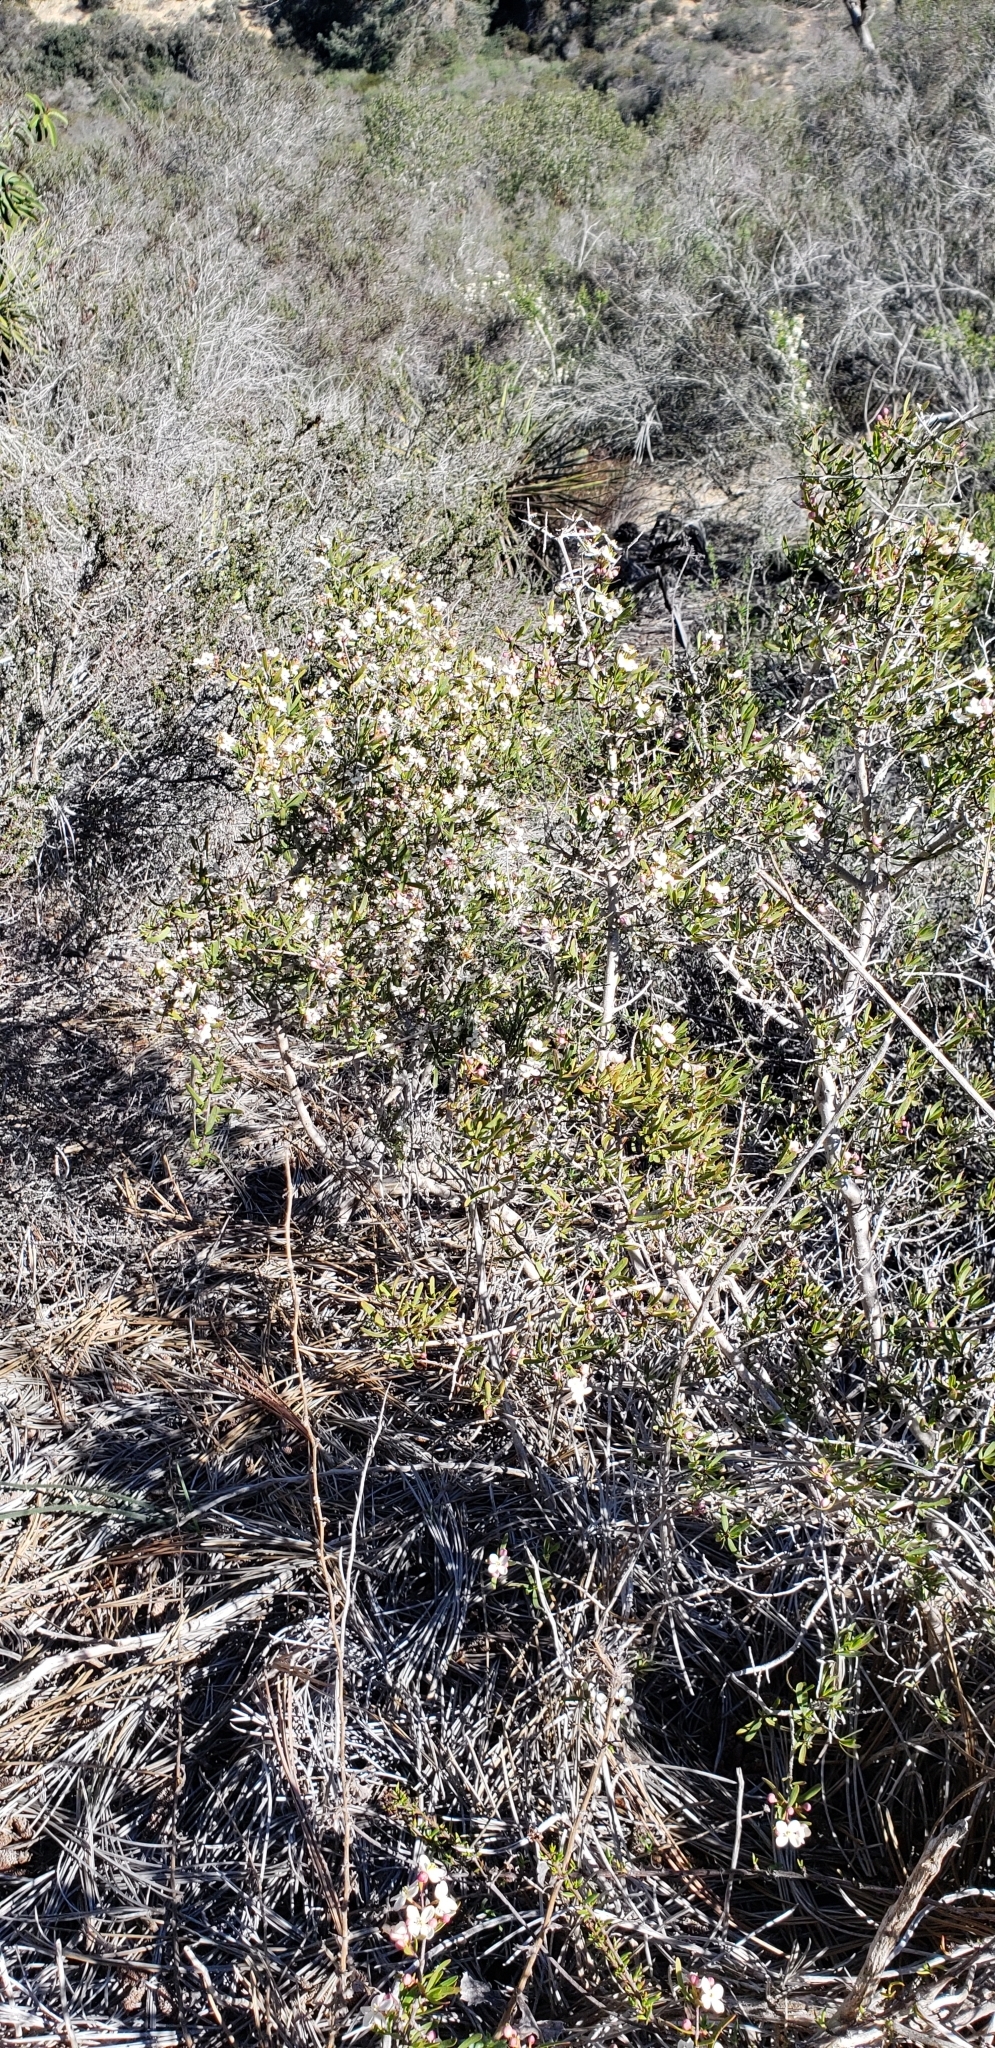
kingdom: Plantae
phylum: Tracheophyta
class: Magnoliopsida
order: Sapindales
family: Rutaceae
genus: Cneoridium
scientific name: Cneoridium dumosum
